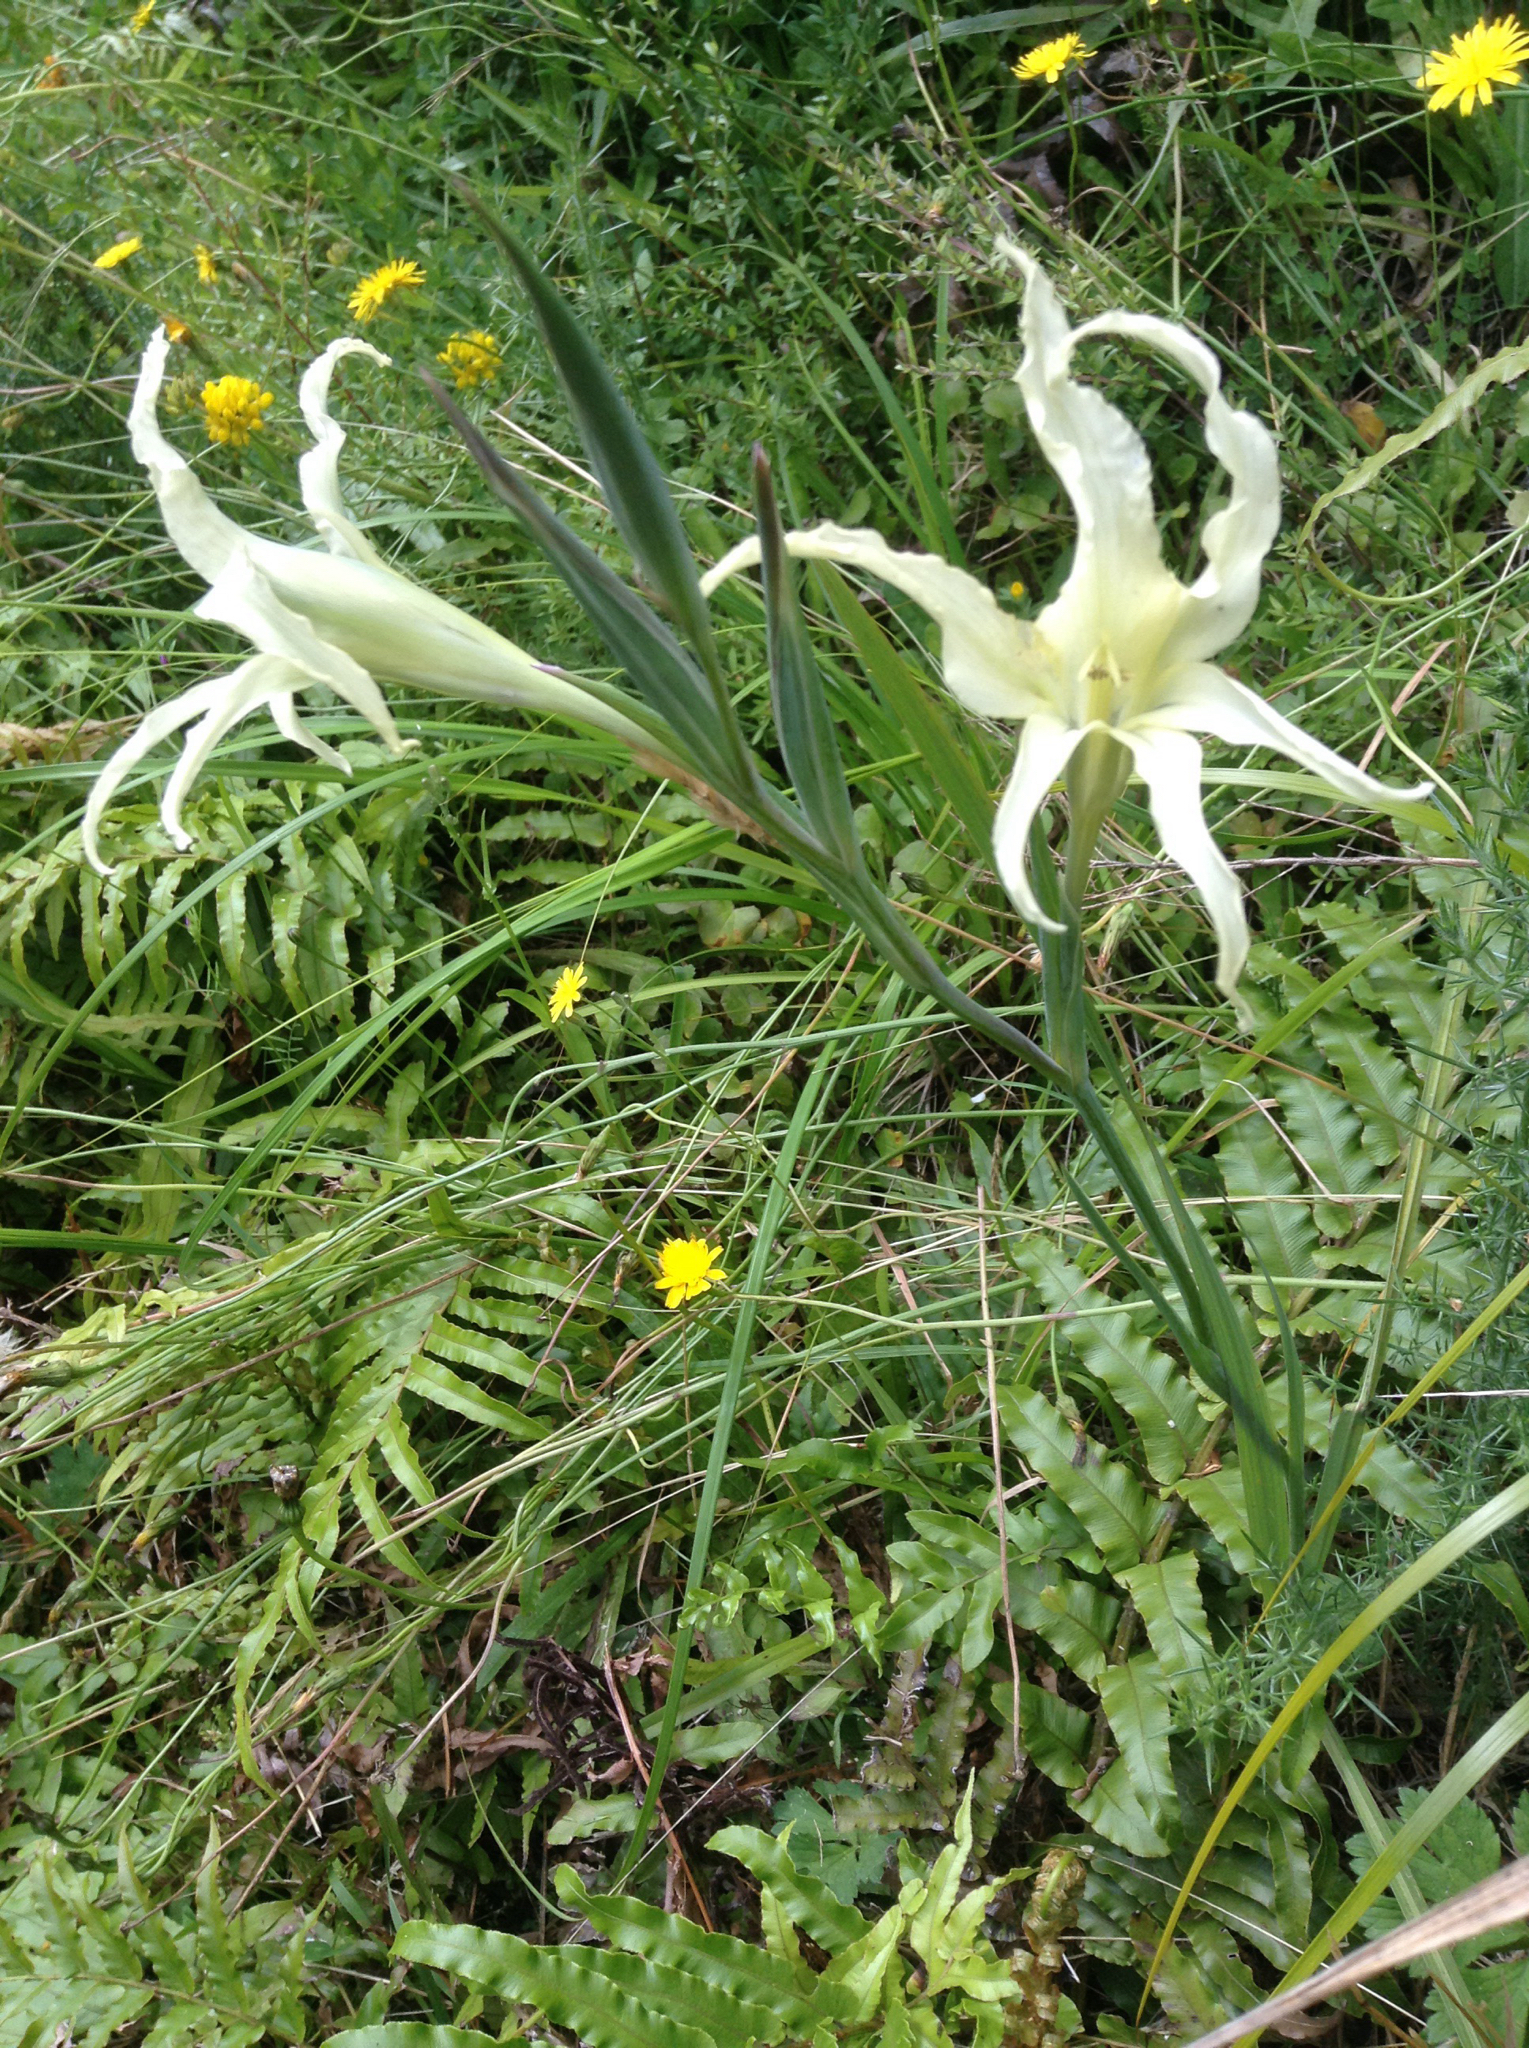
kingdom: Plantae
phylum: Tracheophyta
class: Liliopsida
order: Asparagales
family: Iridaceae
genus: Gladiolus
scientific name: Gladiolus undulatus
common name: Large painted-lady
